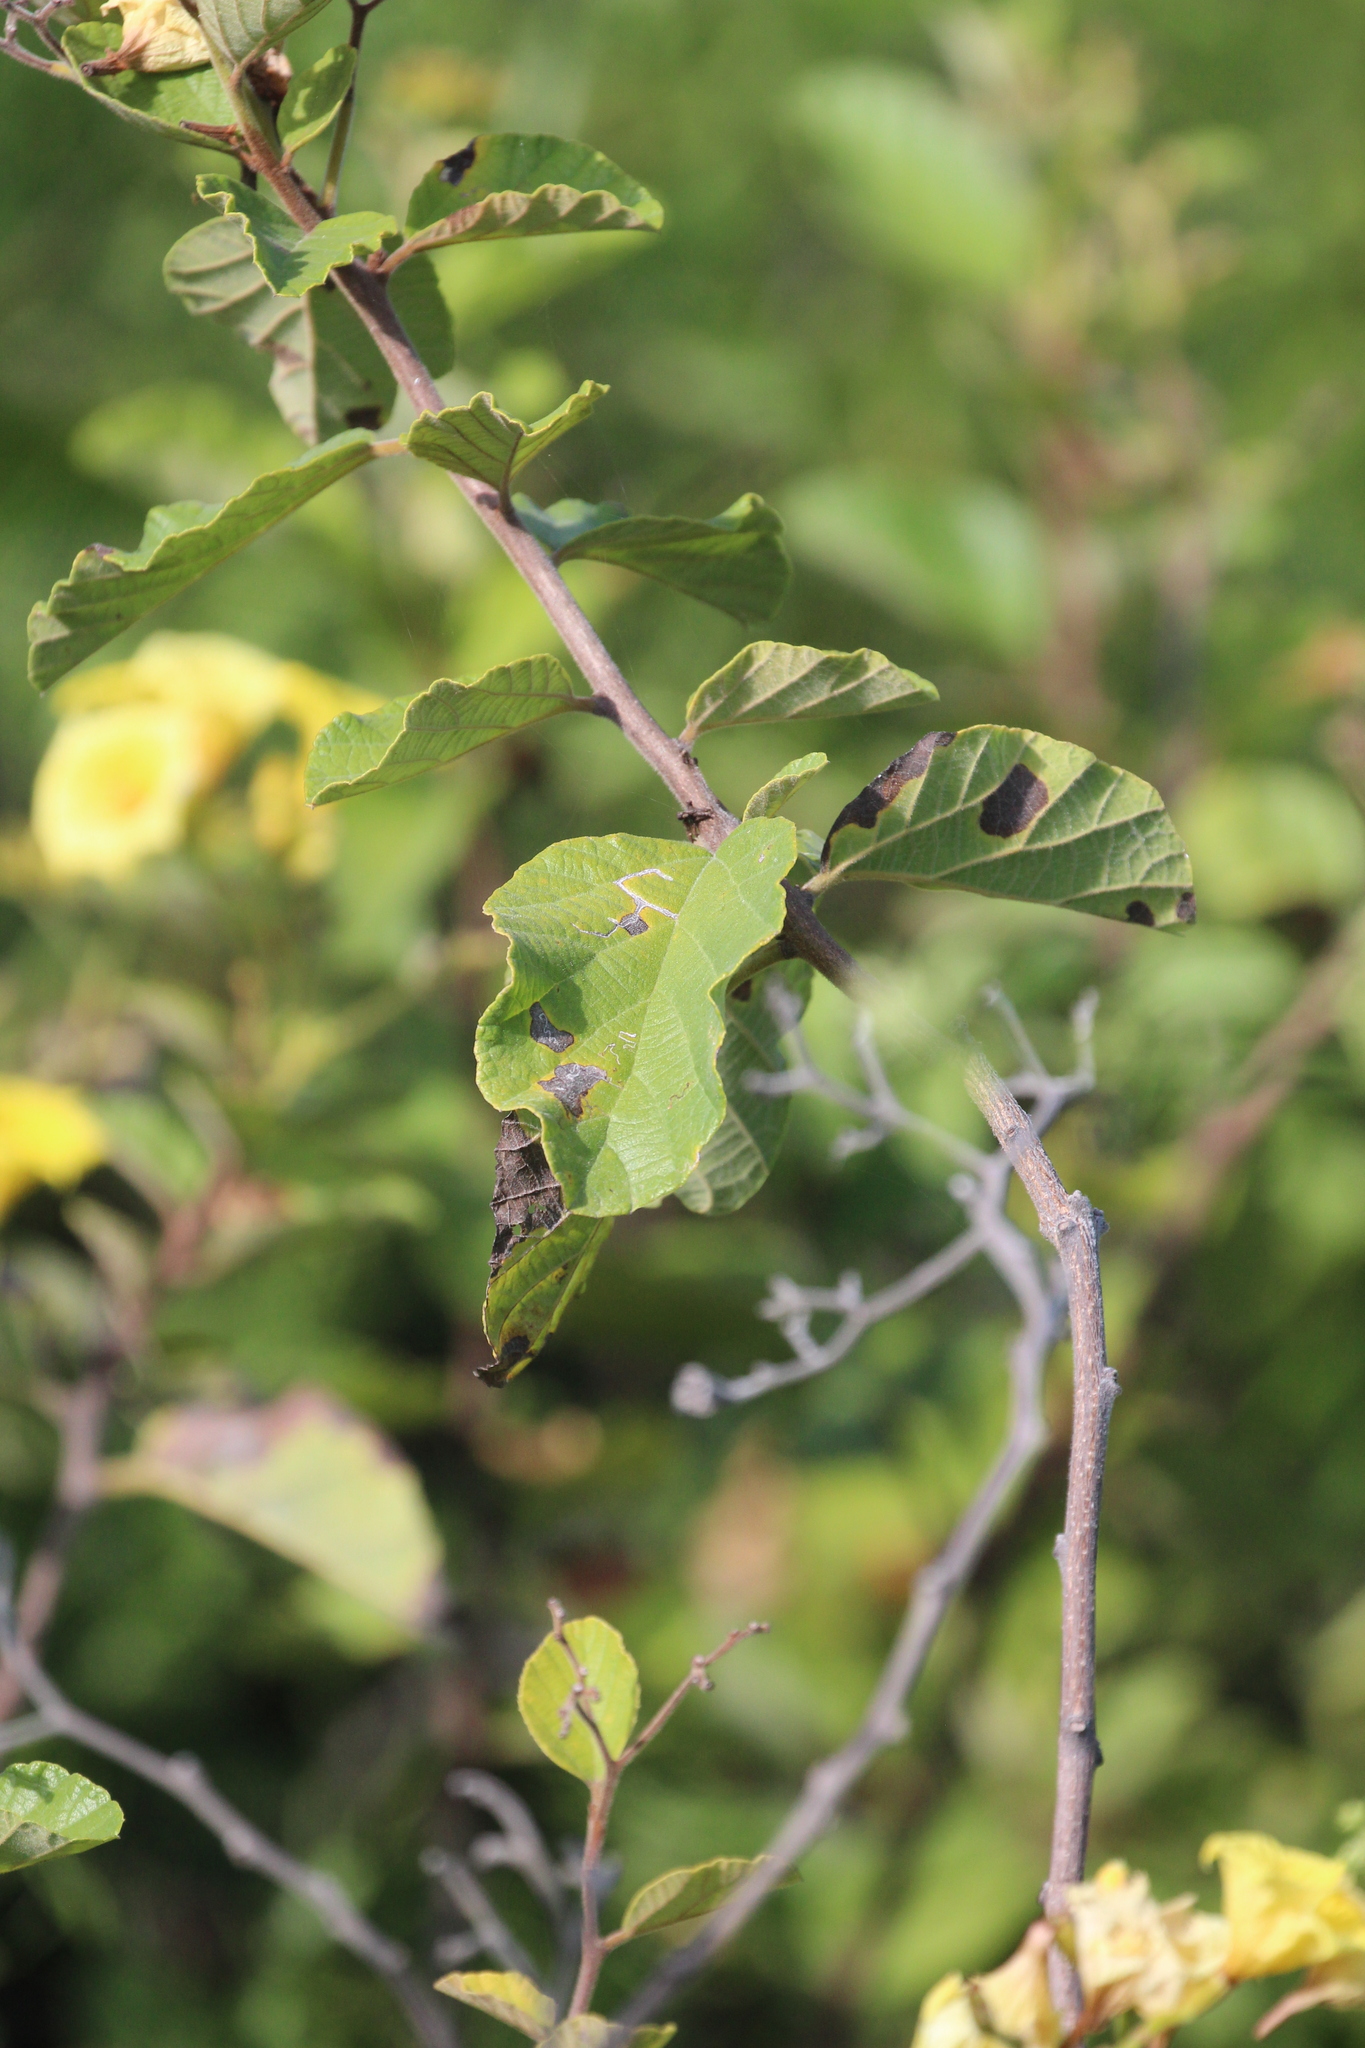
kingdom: Plantae
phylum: Tracheophyta
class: Magnoliopsida
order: Boraginales
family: Cordiaceae
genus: Cordia
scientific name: Cordia lutea
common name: Yellow geiger
